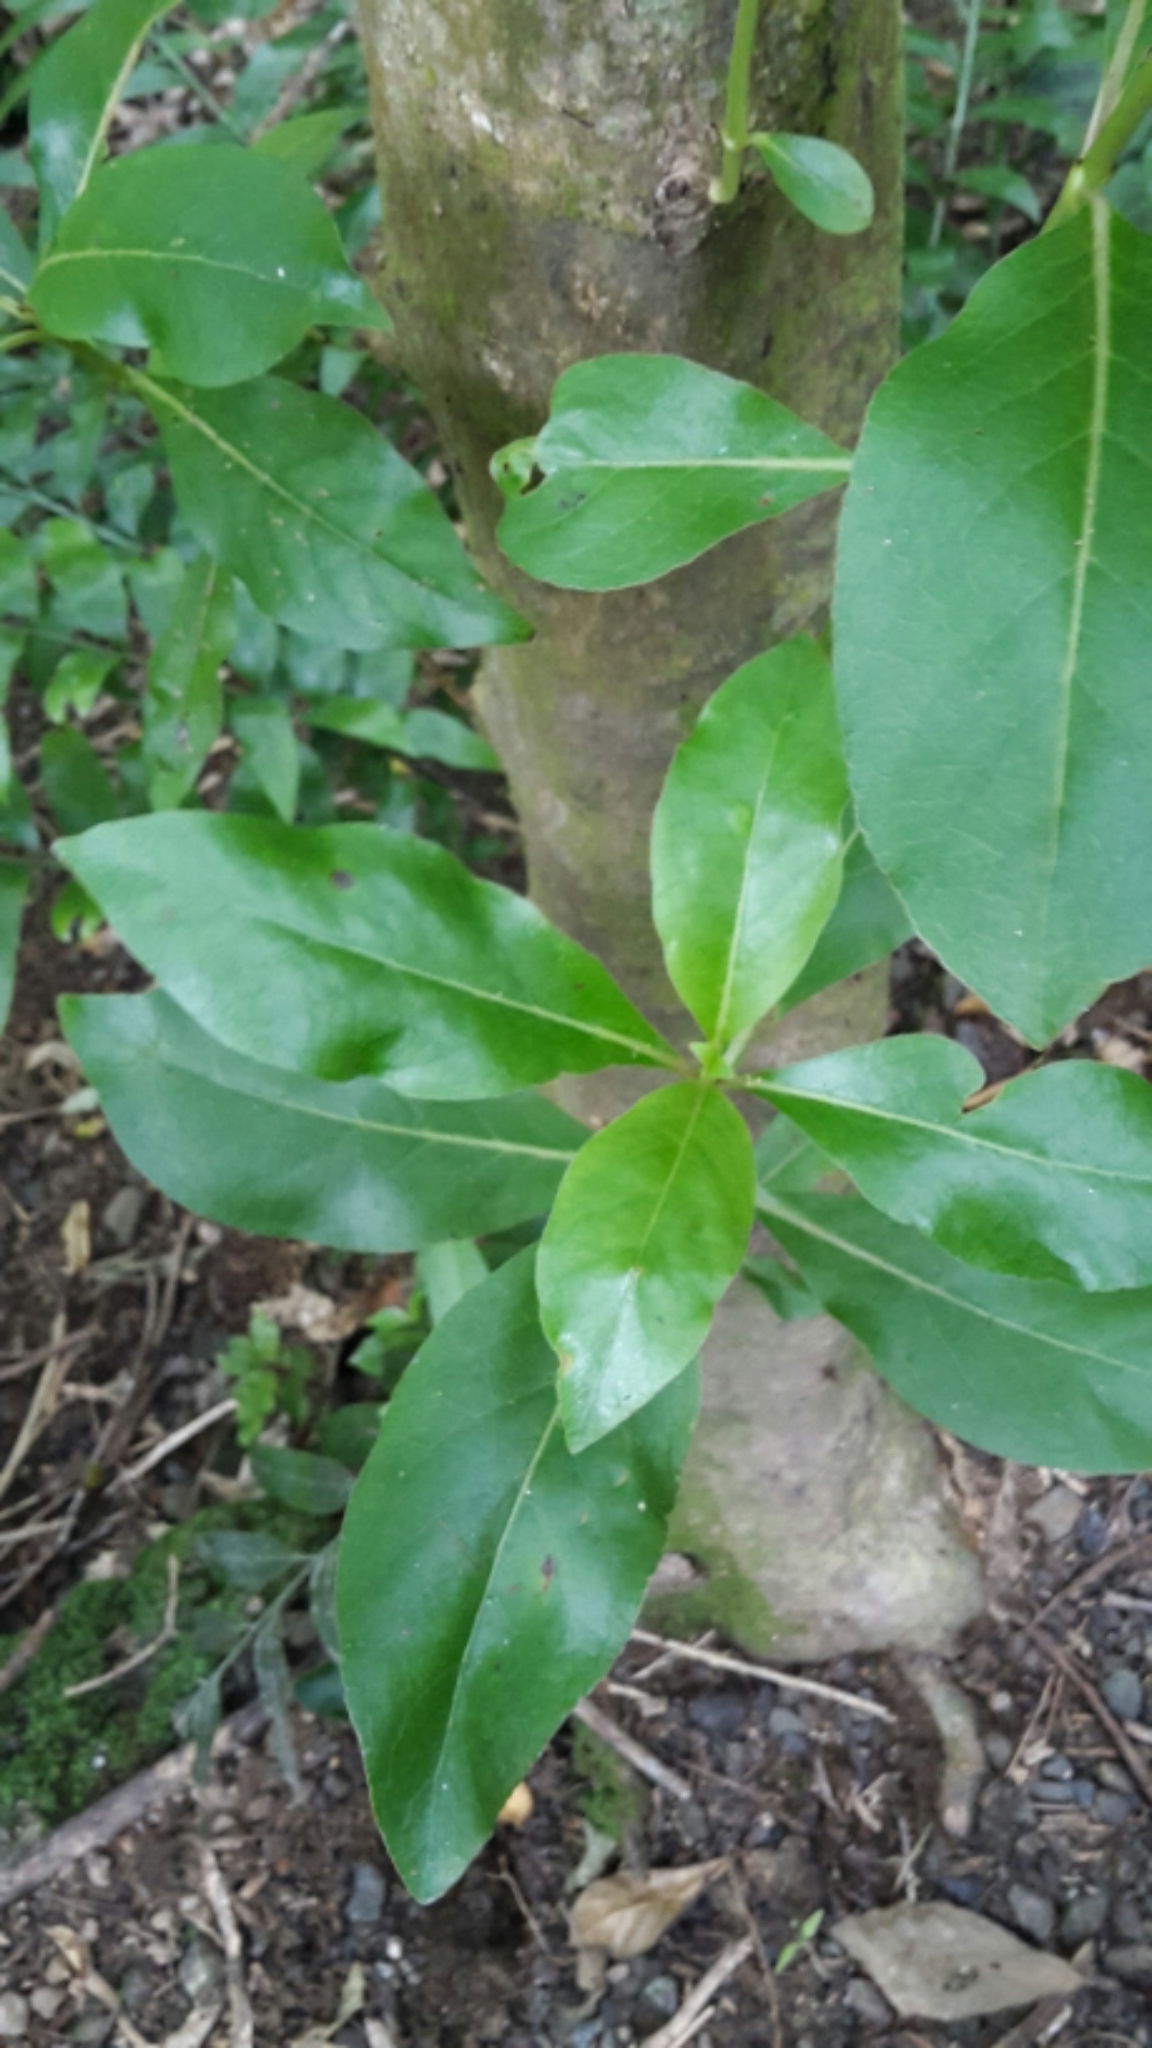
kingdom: Plantae
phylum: Tracheophyta
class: Magnoliopsida
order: Gentianales
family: Rubiaceae
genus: Coprosma
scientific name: Coprosma robusta
